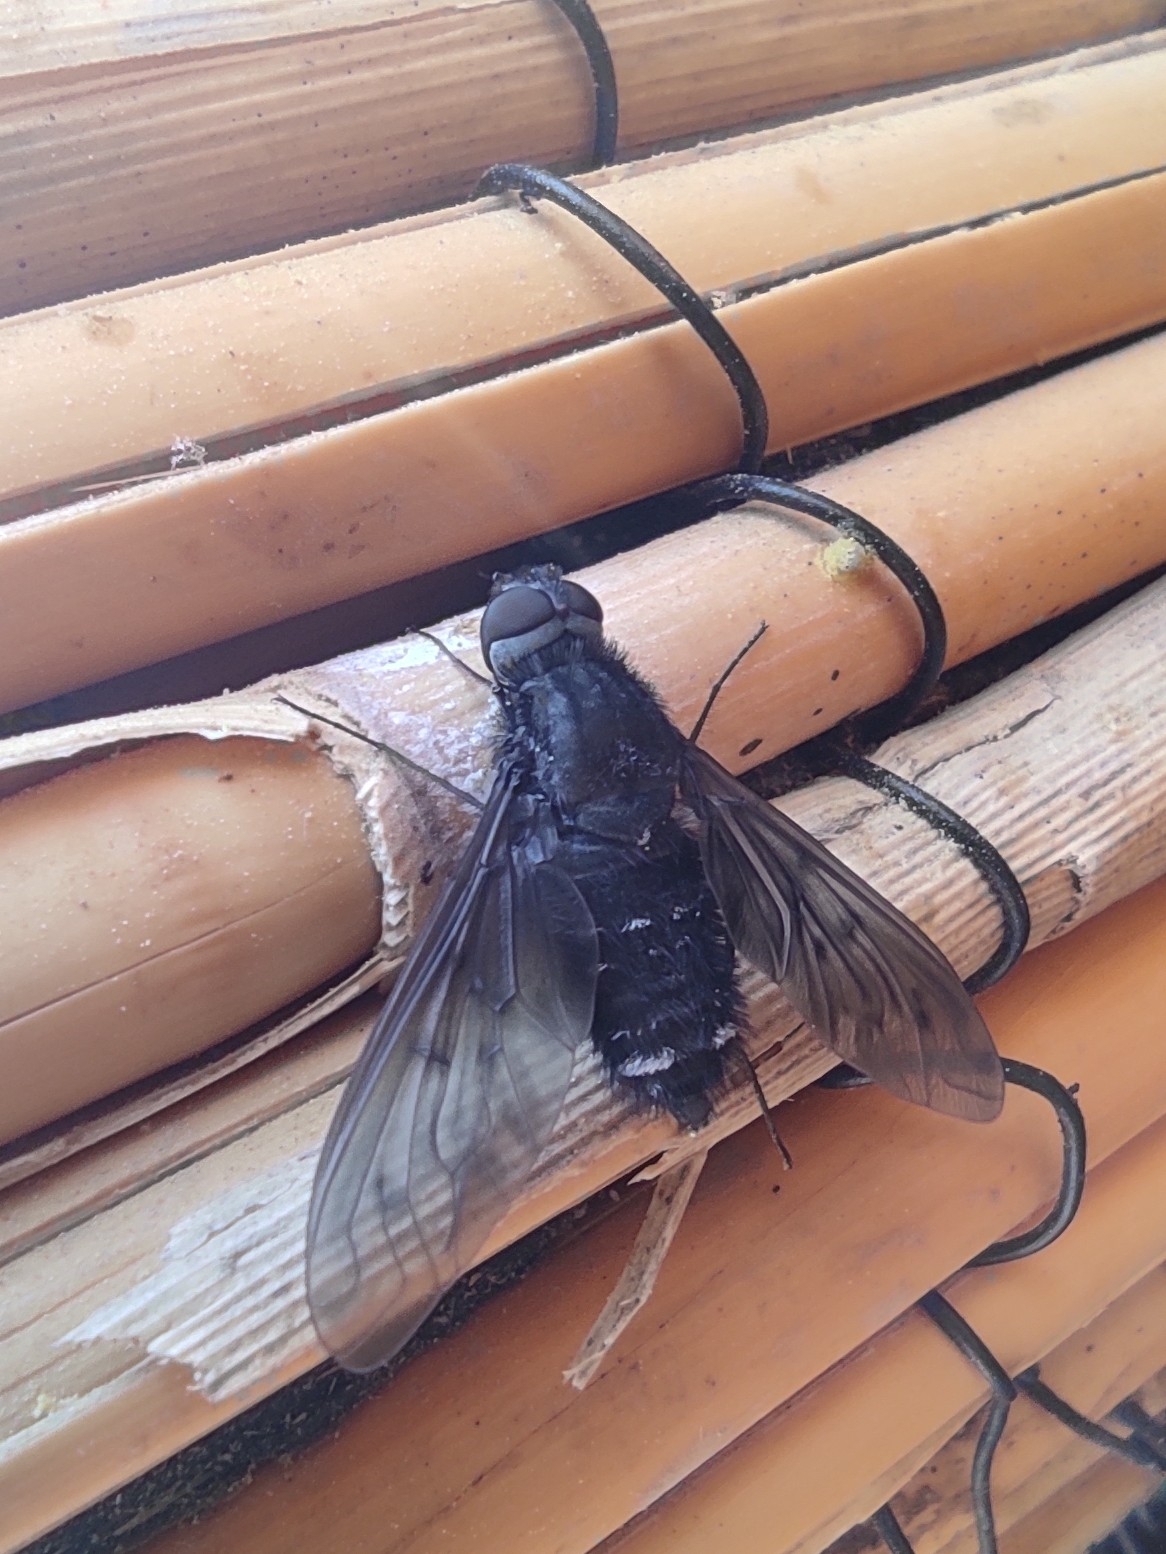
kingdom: Animalia
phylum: Arthropoda
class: Insecta
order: Diptera
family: Bombyliidae
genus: Anthrax
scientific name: Anthrax anthrax
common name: Anthracite bee-fly
